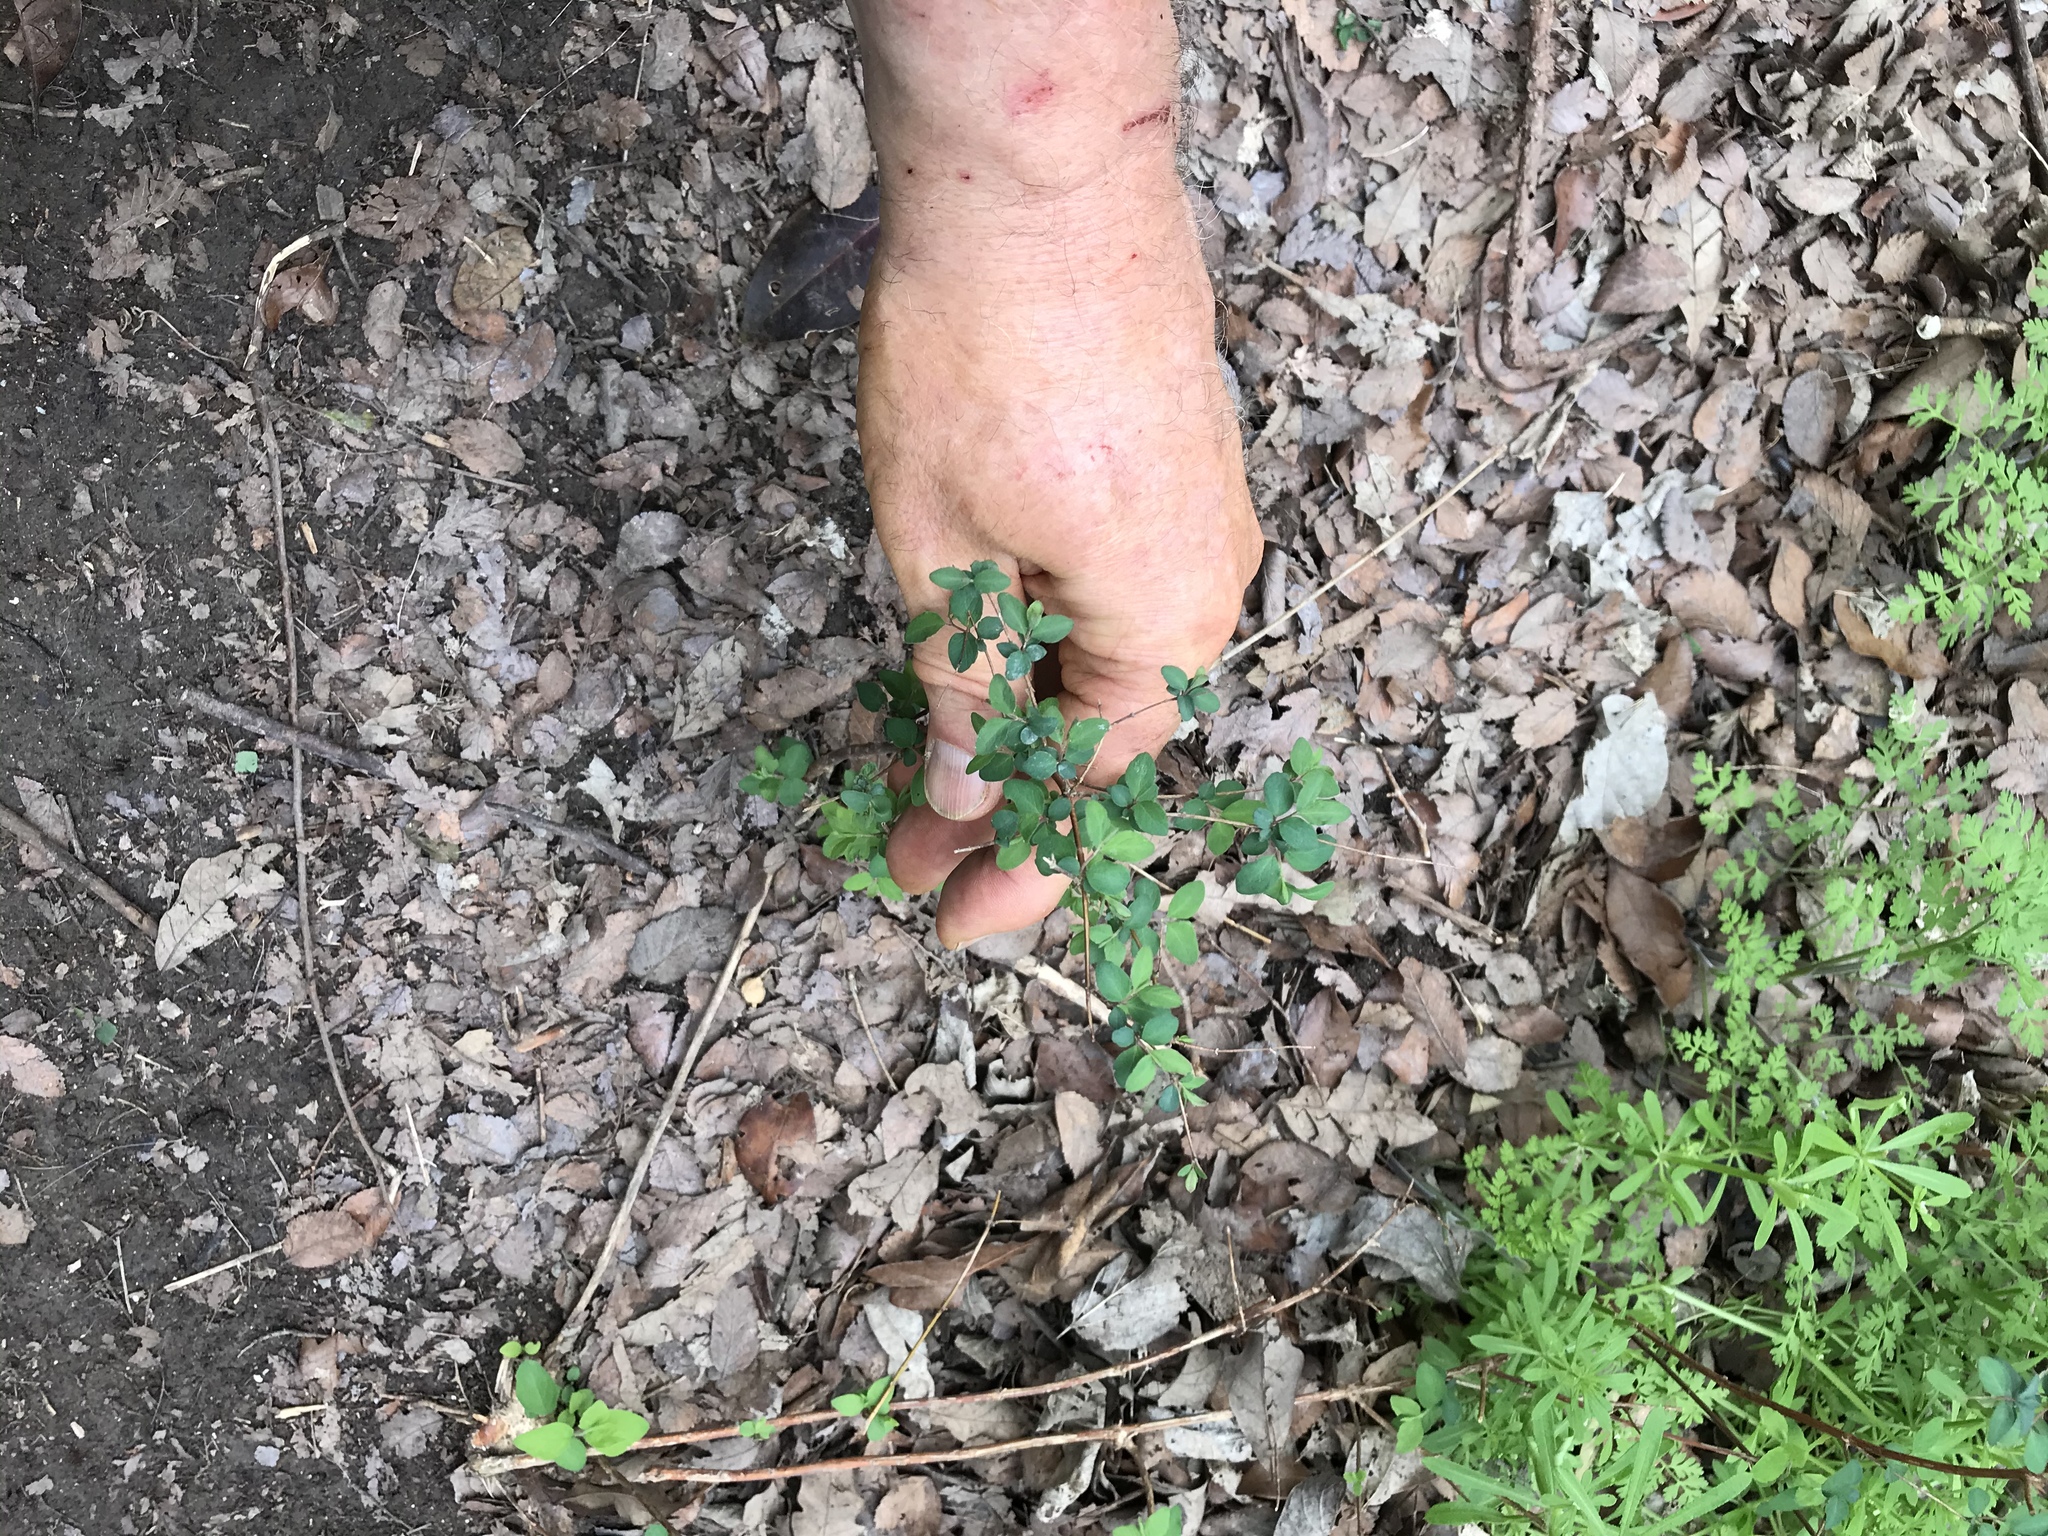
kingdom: Plantae
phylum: Tracheophyta
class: Magnoliopsida
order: Dipsacales
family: Caprifoliaceae
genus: Symphoricarpos
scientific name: Symphoricarpos orbiculatus
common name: Coralberry
